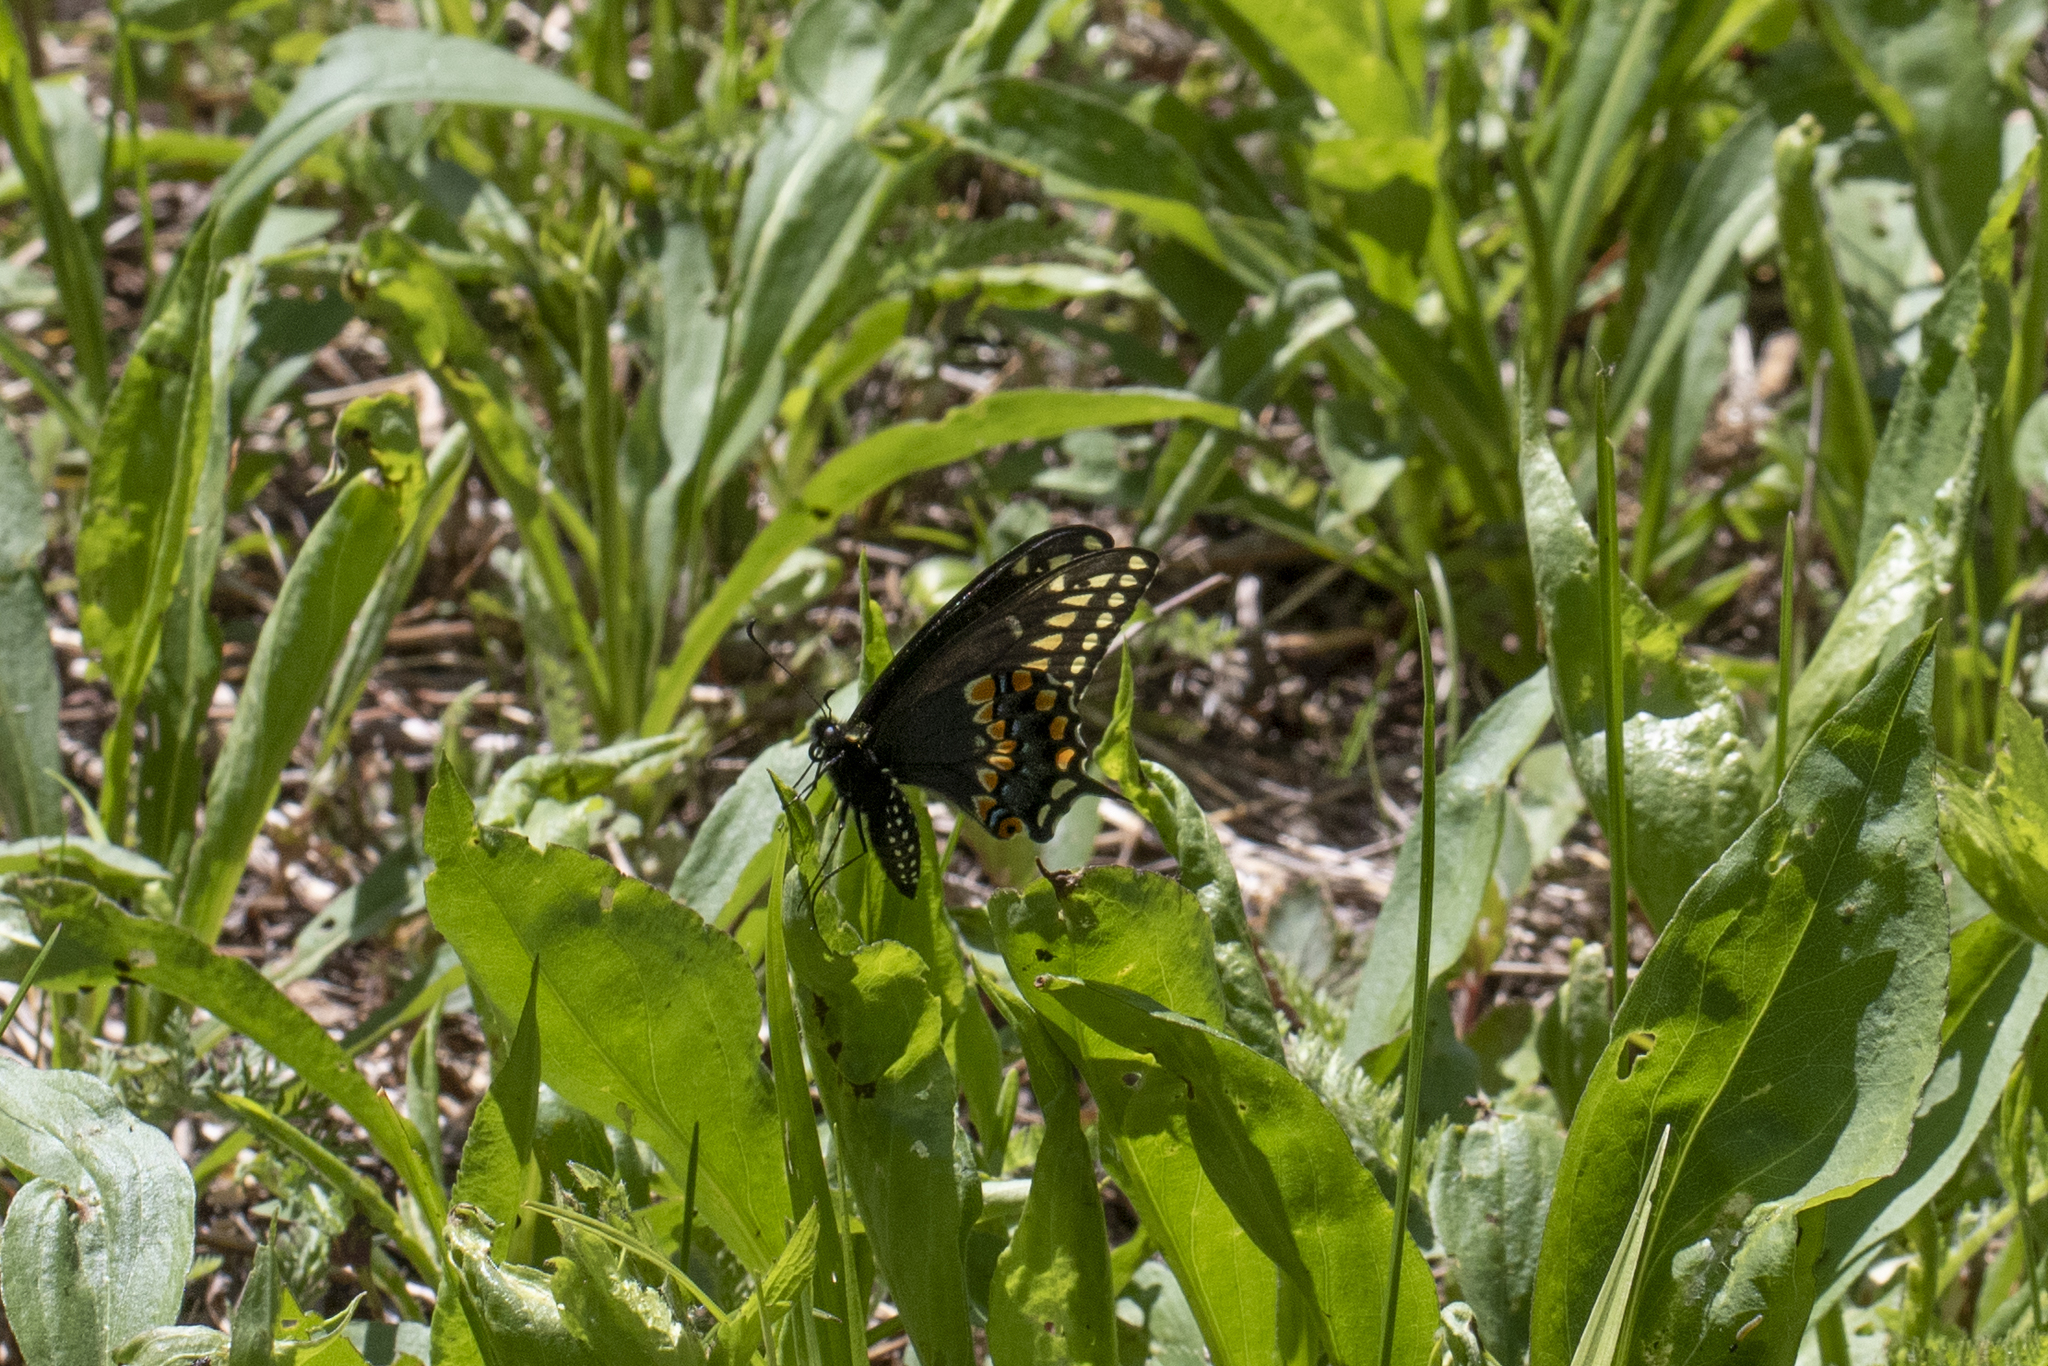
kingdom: Animalia
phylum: Arthropoda
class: Insecta
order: Lepidoptera
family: Papilionidae
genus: Papilio
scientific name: Papilio polyxenes
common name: Black swallowtail
